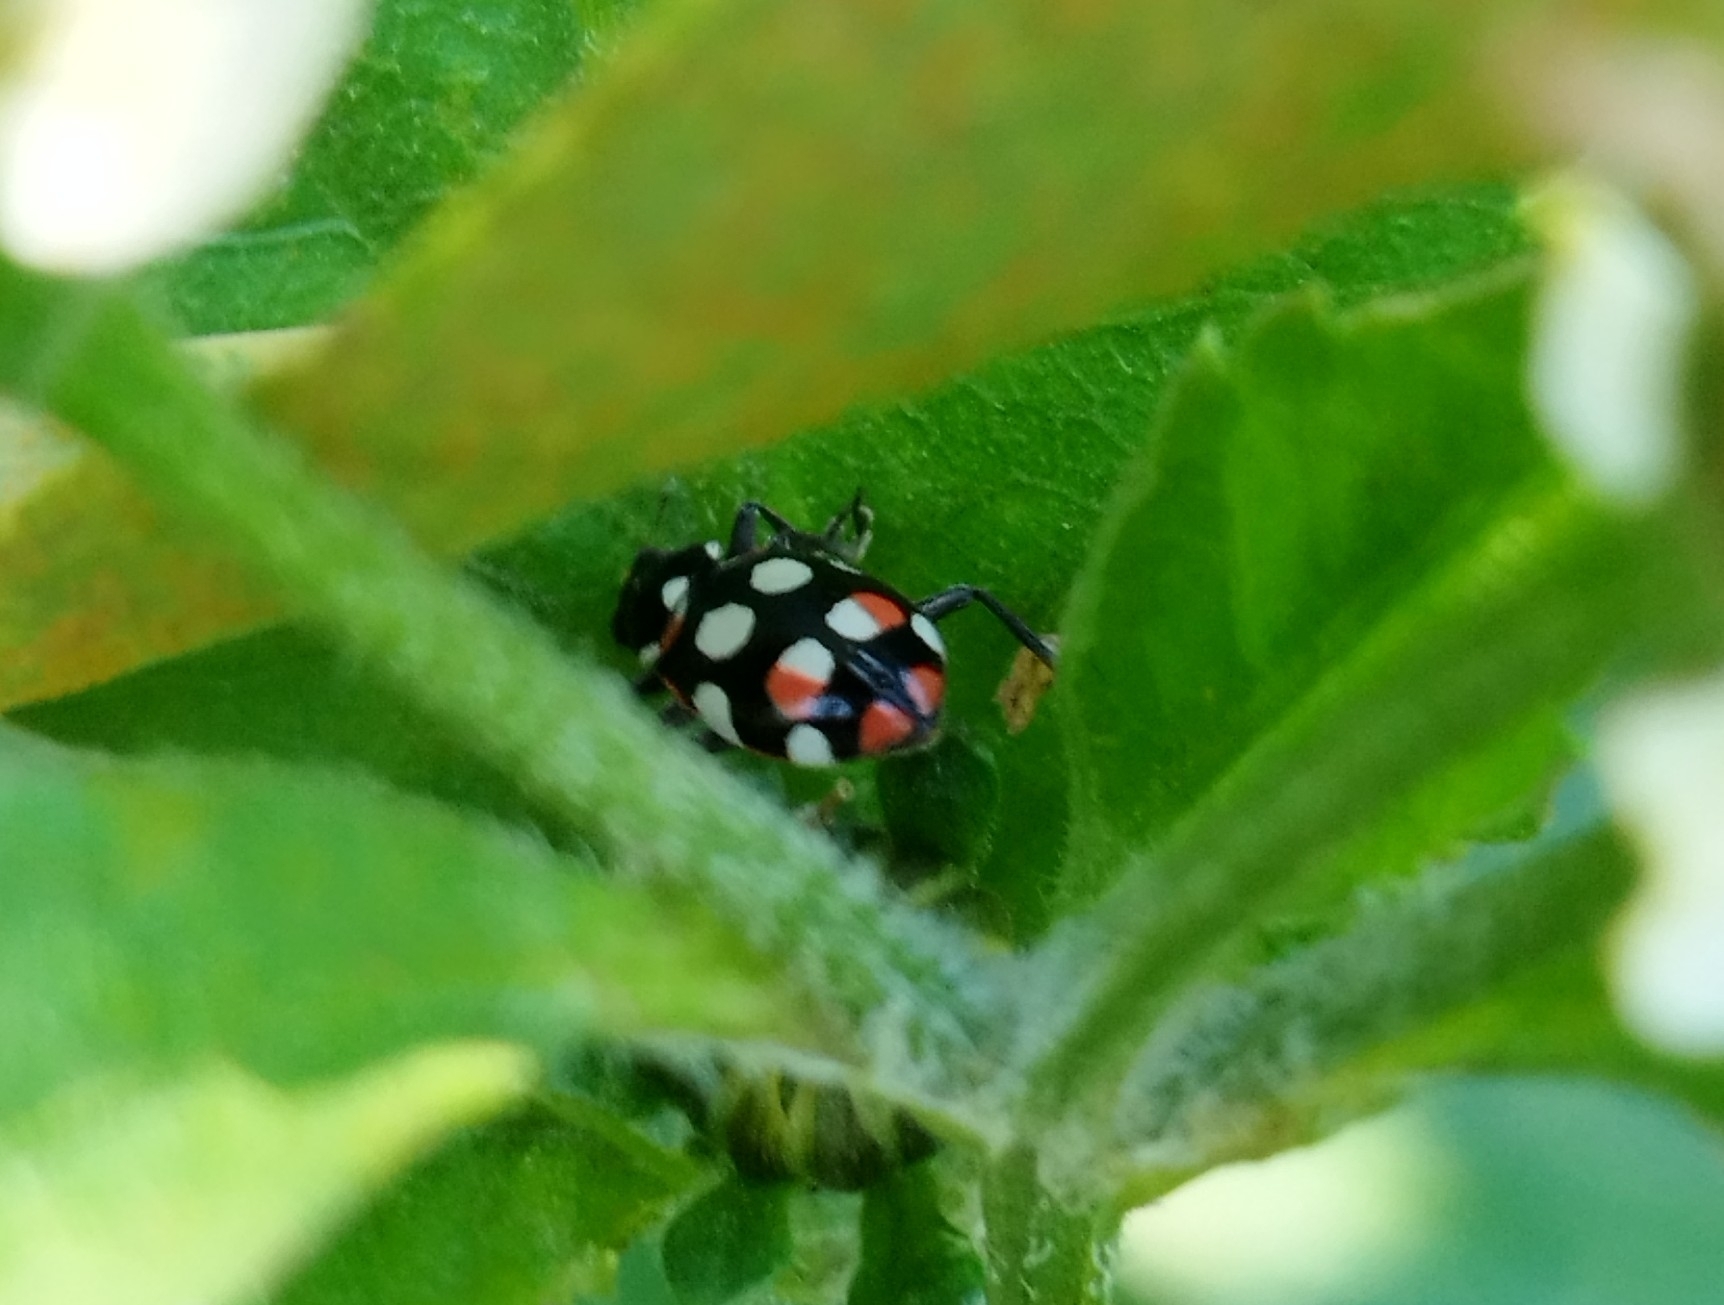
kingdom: Animalia
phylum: Arthropoda
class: Insecta
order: Coleoptera
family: Coccinellidae
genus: Eriopis
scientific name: Eriopis connexa
